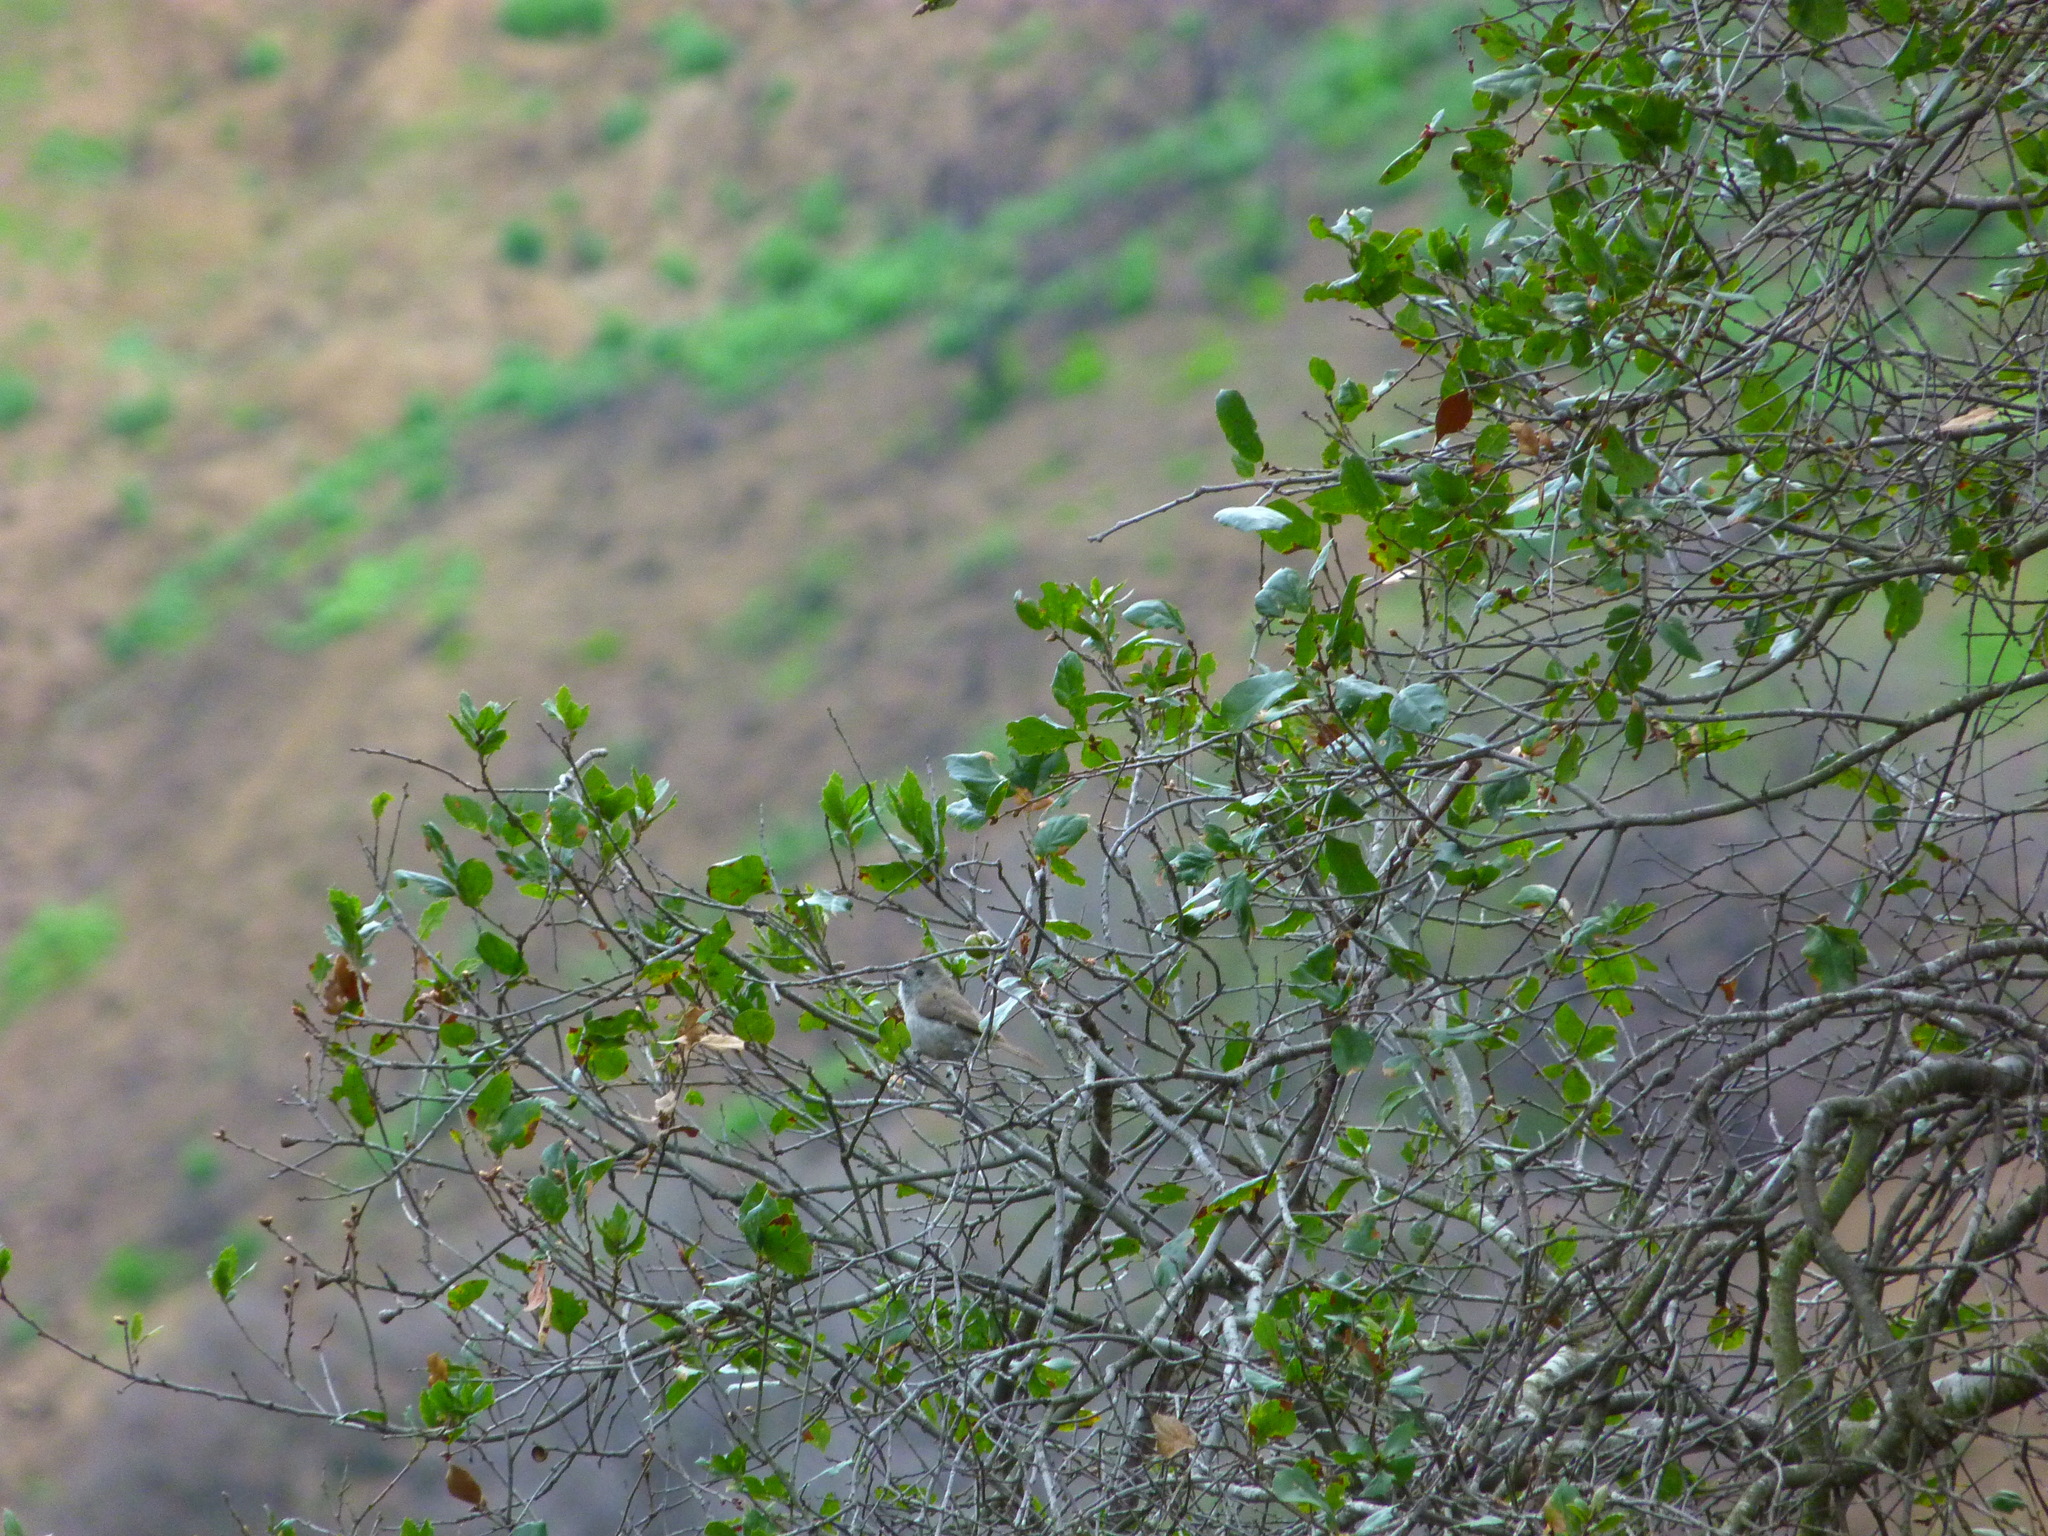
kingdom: Animalia
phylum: Chordata
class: Aves
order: Passeriformes
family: Paridae
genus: Baeolophus
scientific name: Baeolophus inornatus
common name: Oak titmouse
